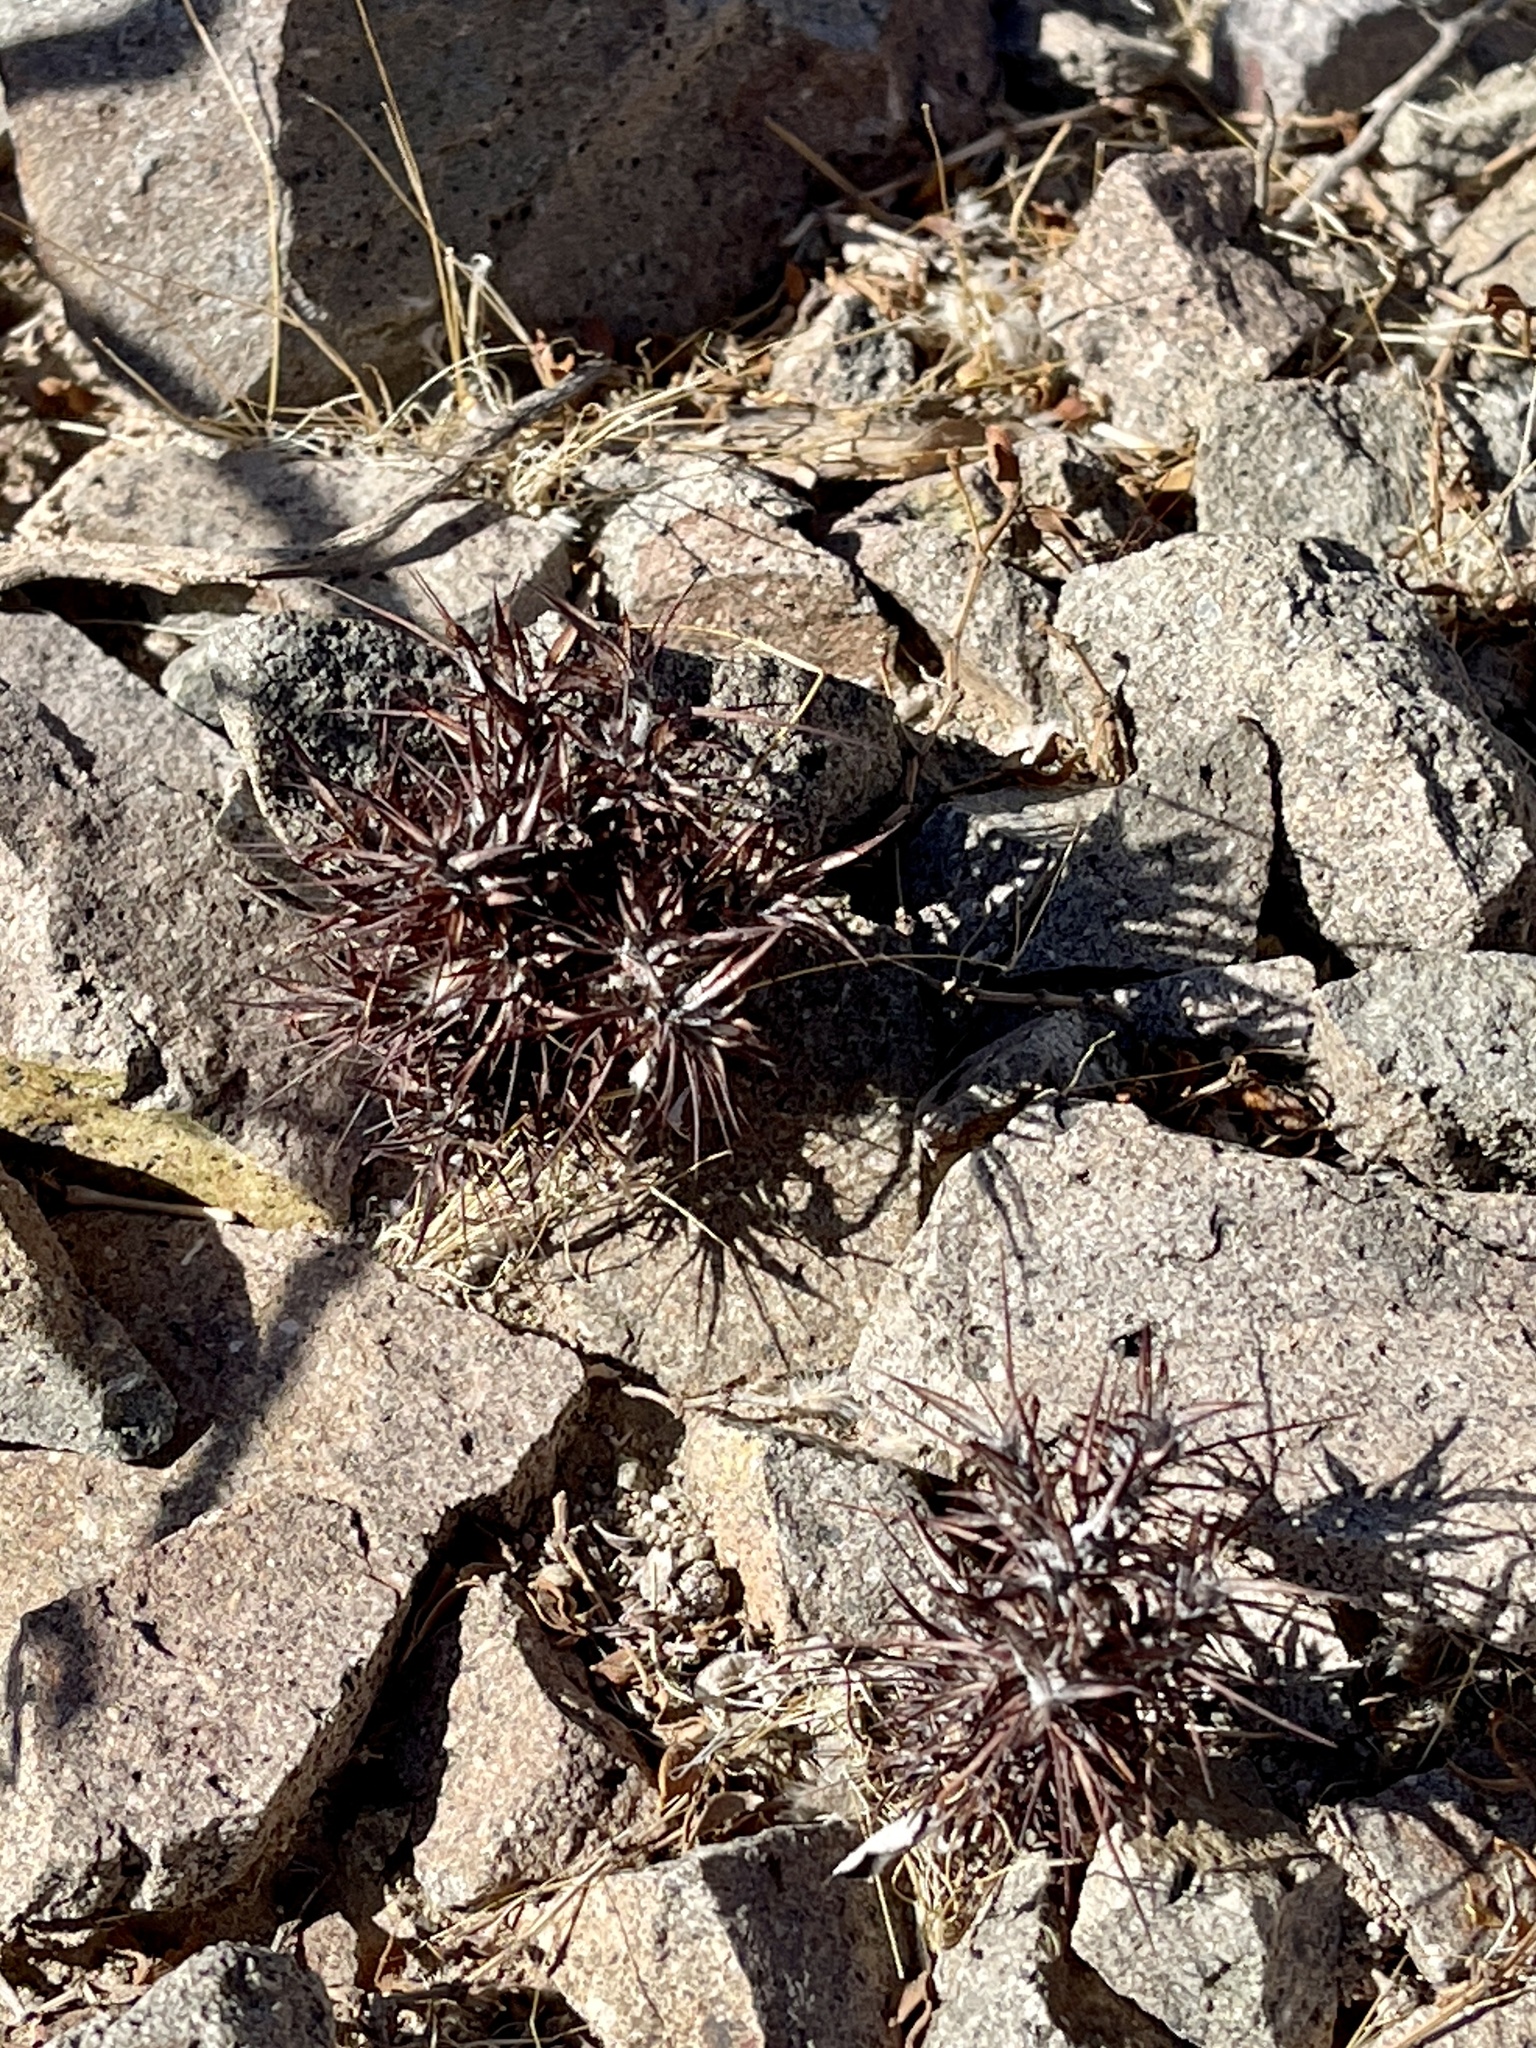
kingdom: Plantae
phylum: Tracheophyta
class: Magnoliopsida
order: Caryophyllales
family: Polygonaceae
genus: Chorizanthe
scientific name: Chorizanthe rigida
